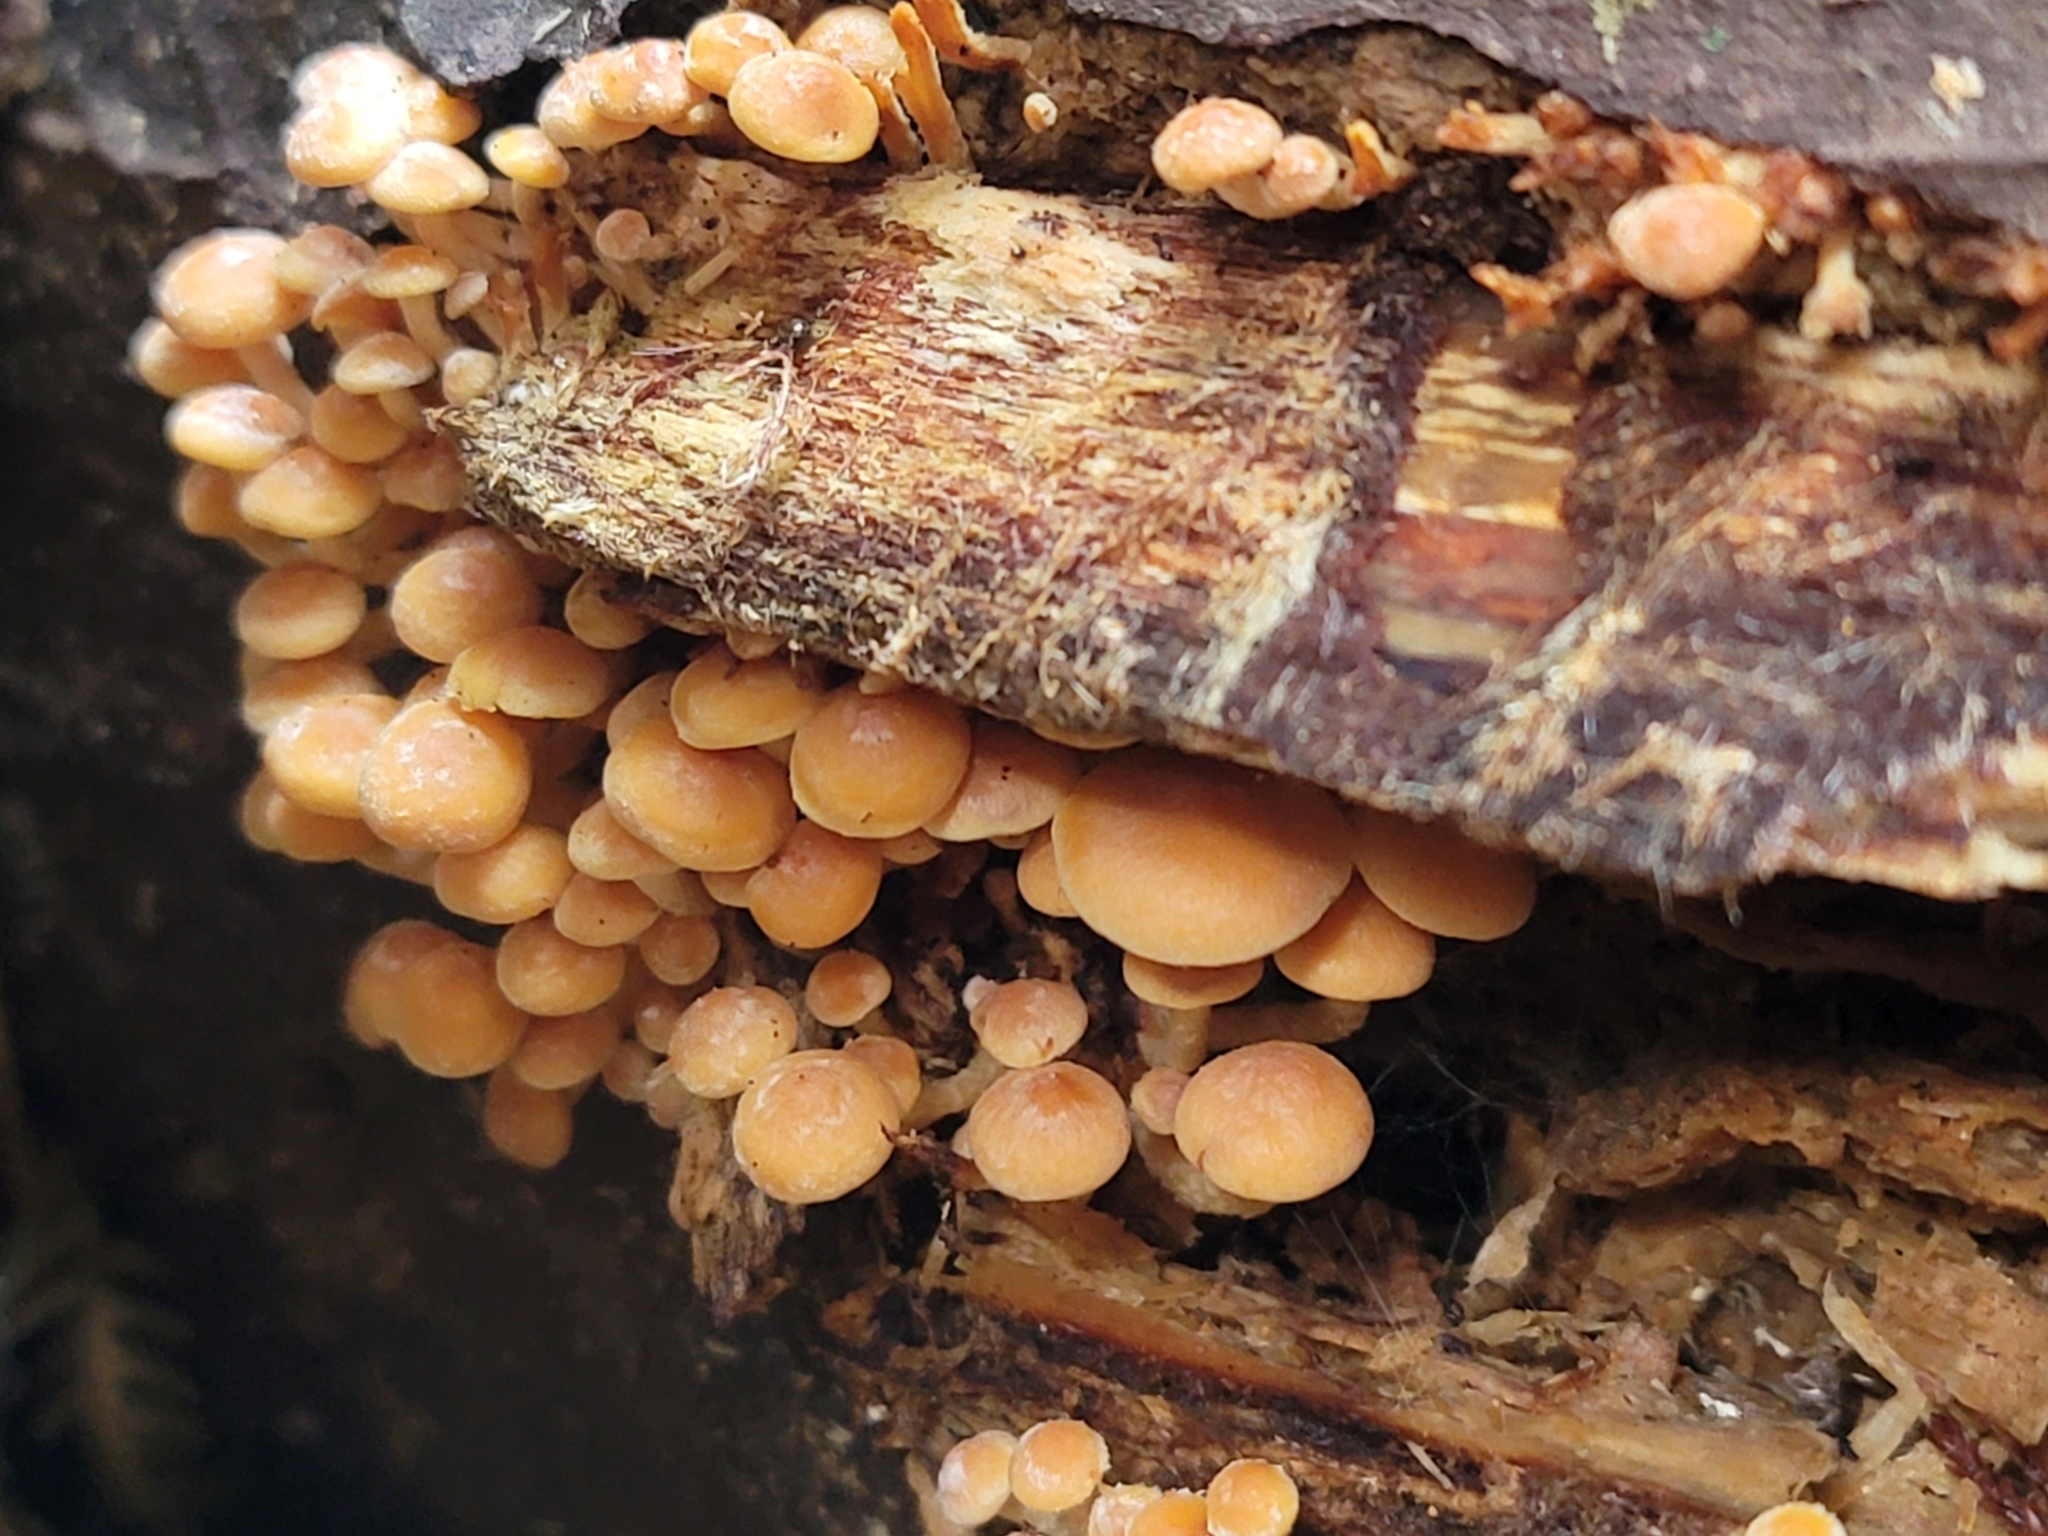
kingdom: Fungi
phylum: Basidiomycota
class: Agaricomycetes
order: Agaricales
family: Strophariaceae
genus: Hypholoma
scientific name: Hypholoma acutum
